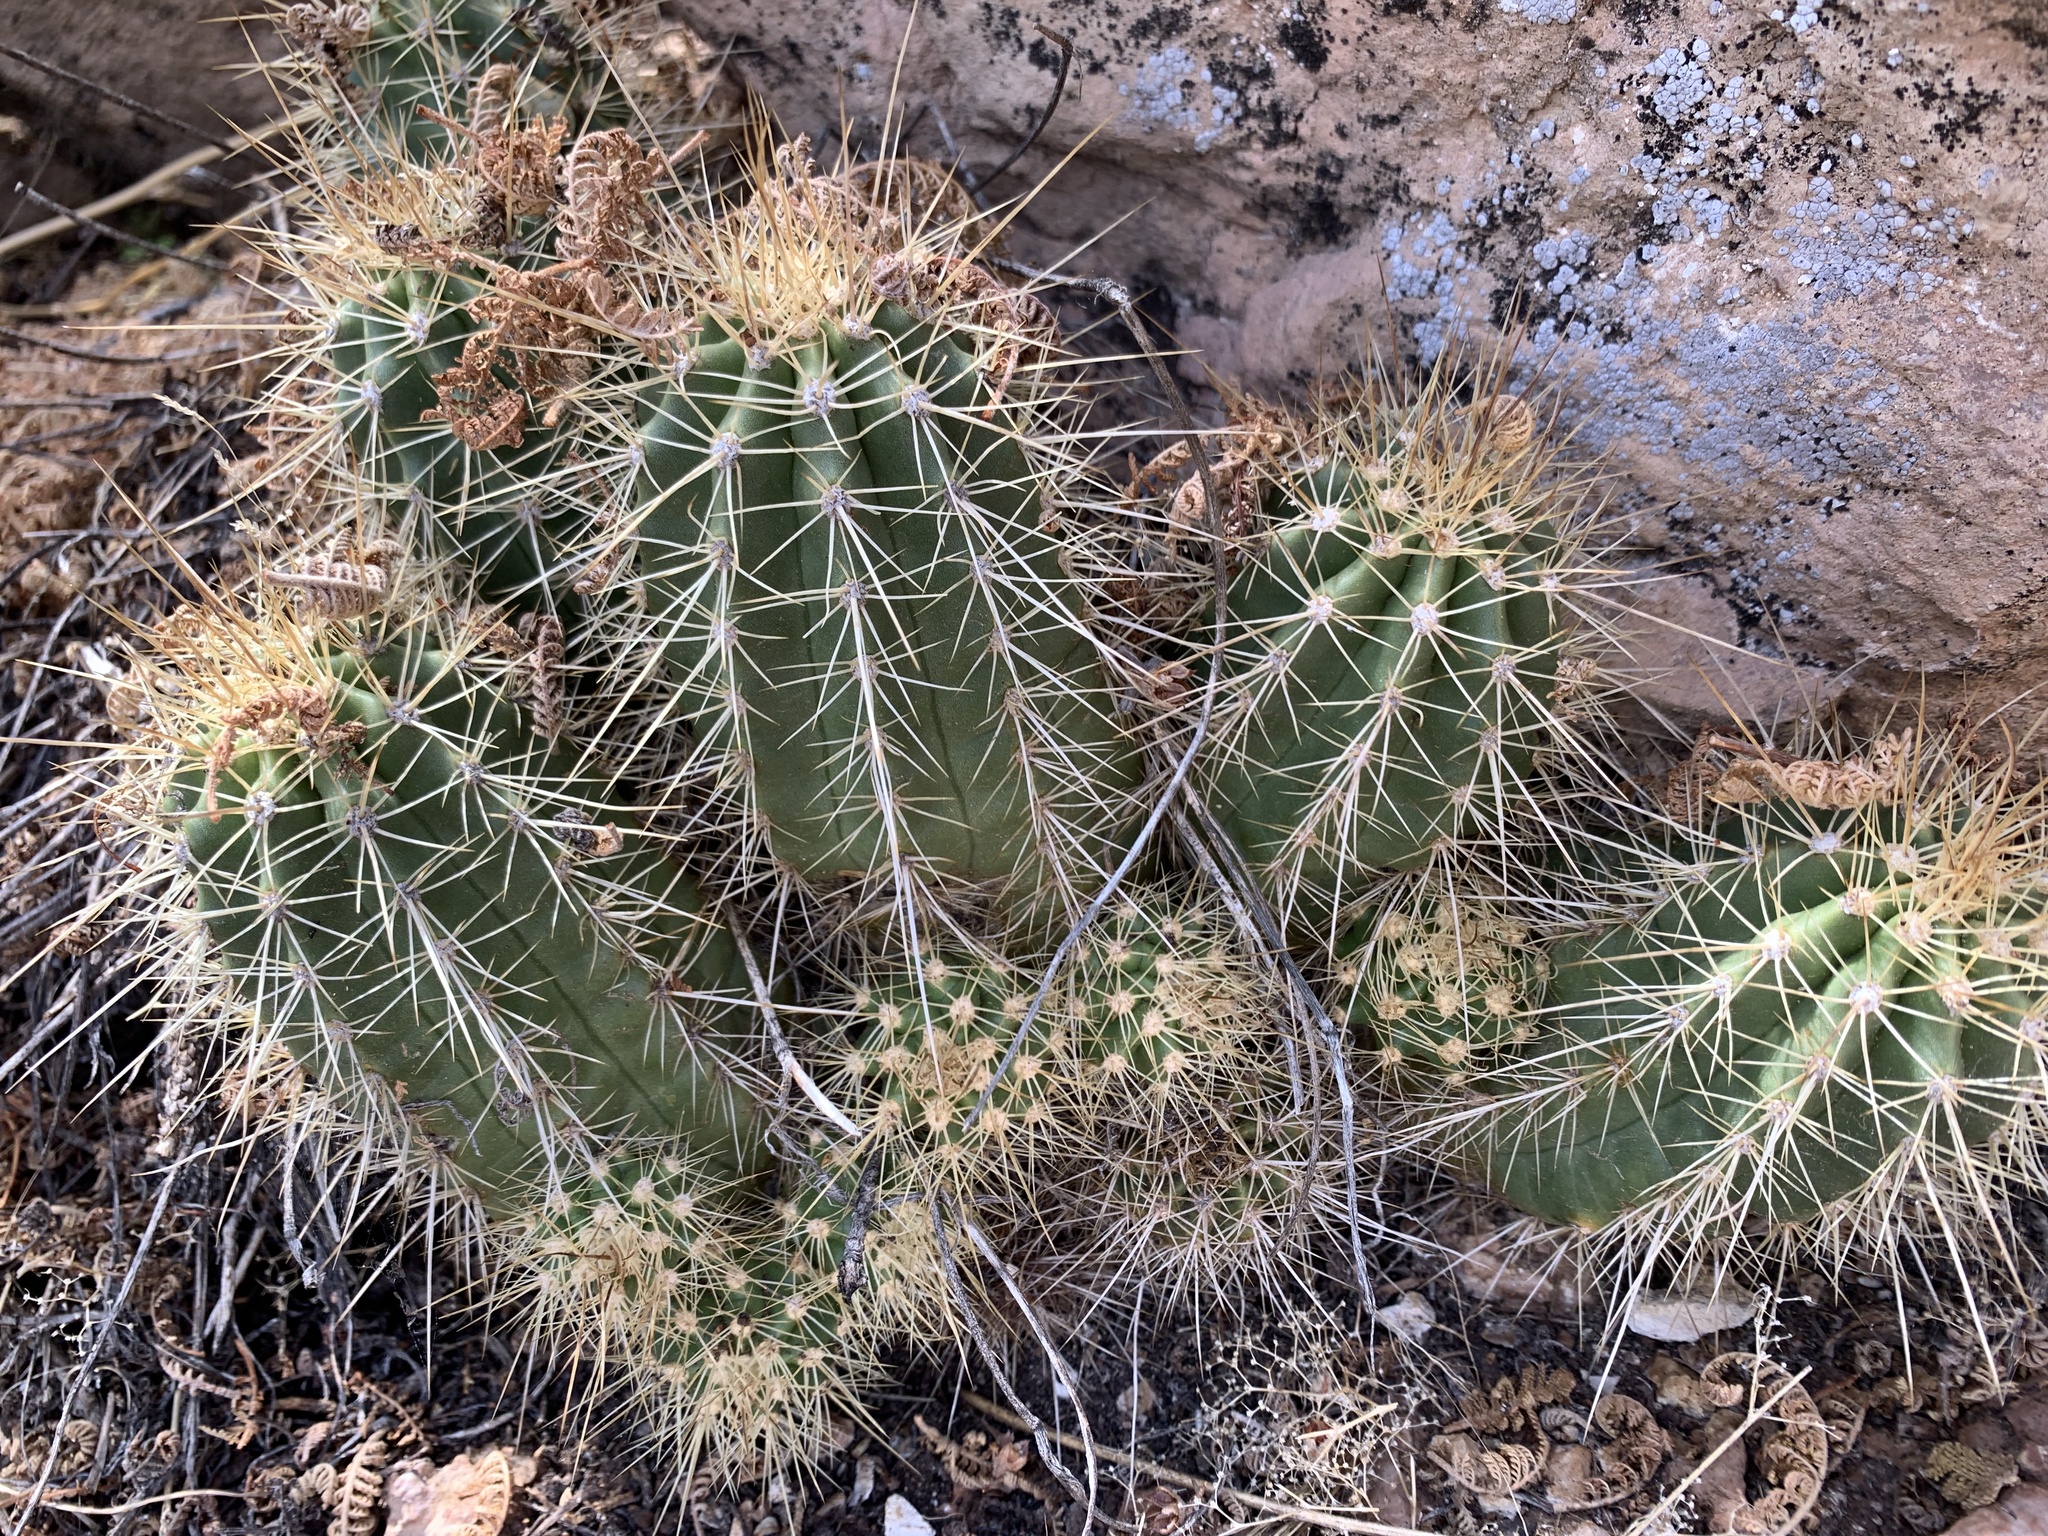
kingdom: Plantae
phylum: Tracheophyta
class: Magnoliopsida
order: Caryophyllales
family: Cactaceae
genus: Echinocereus
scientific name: Echinocereus bakeri
